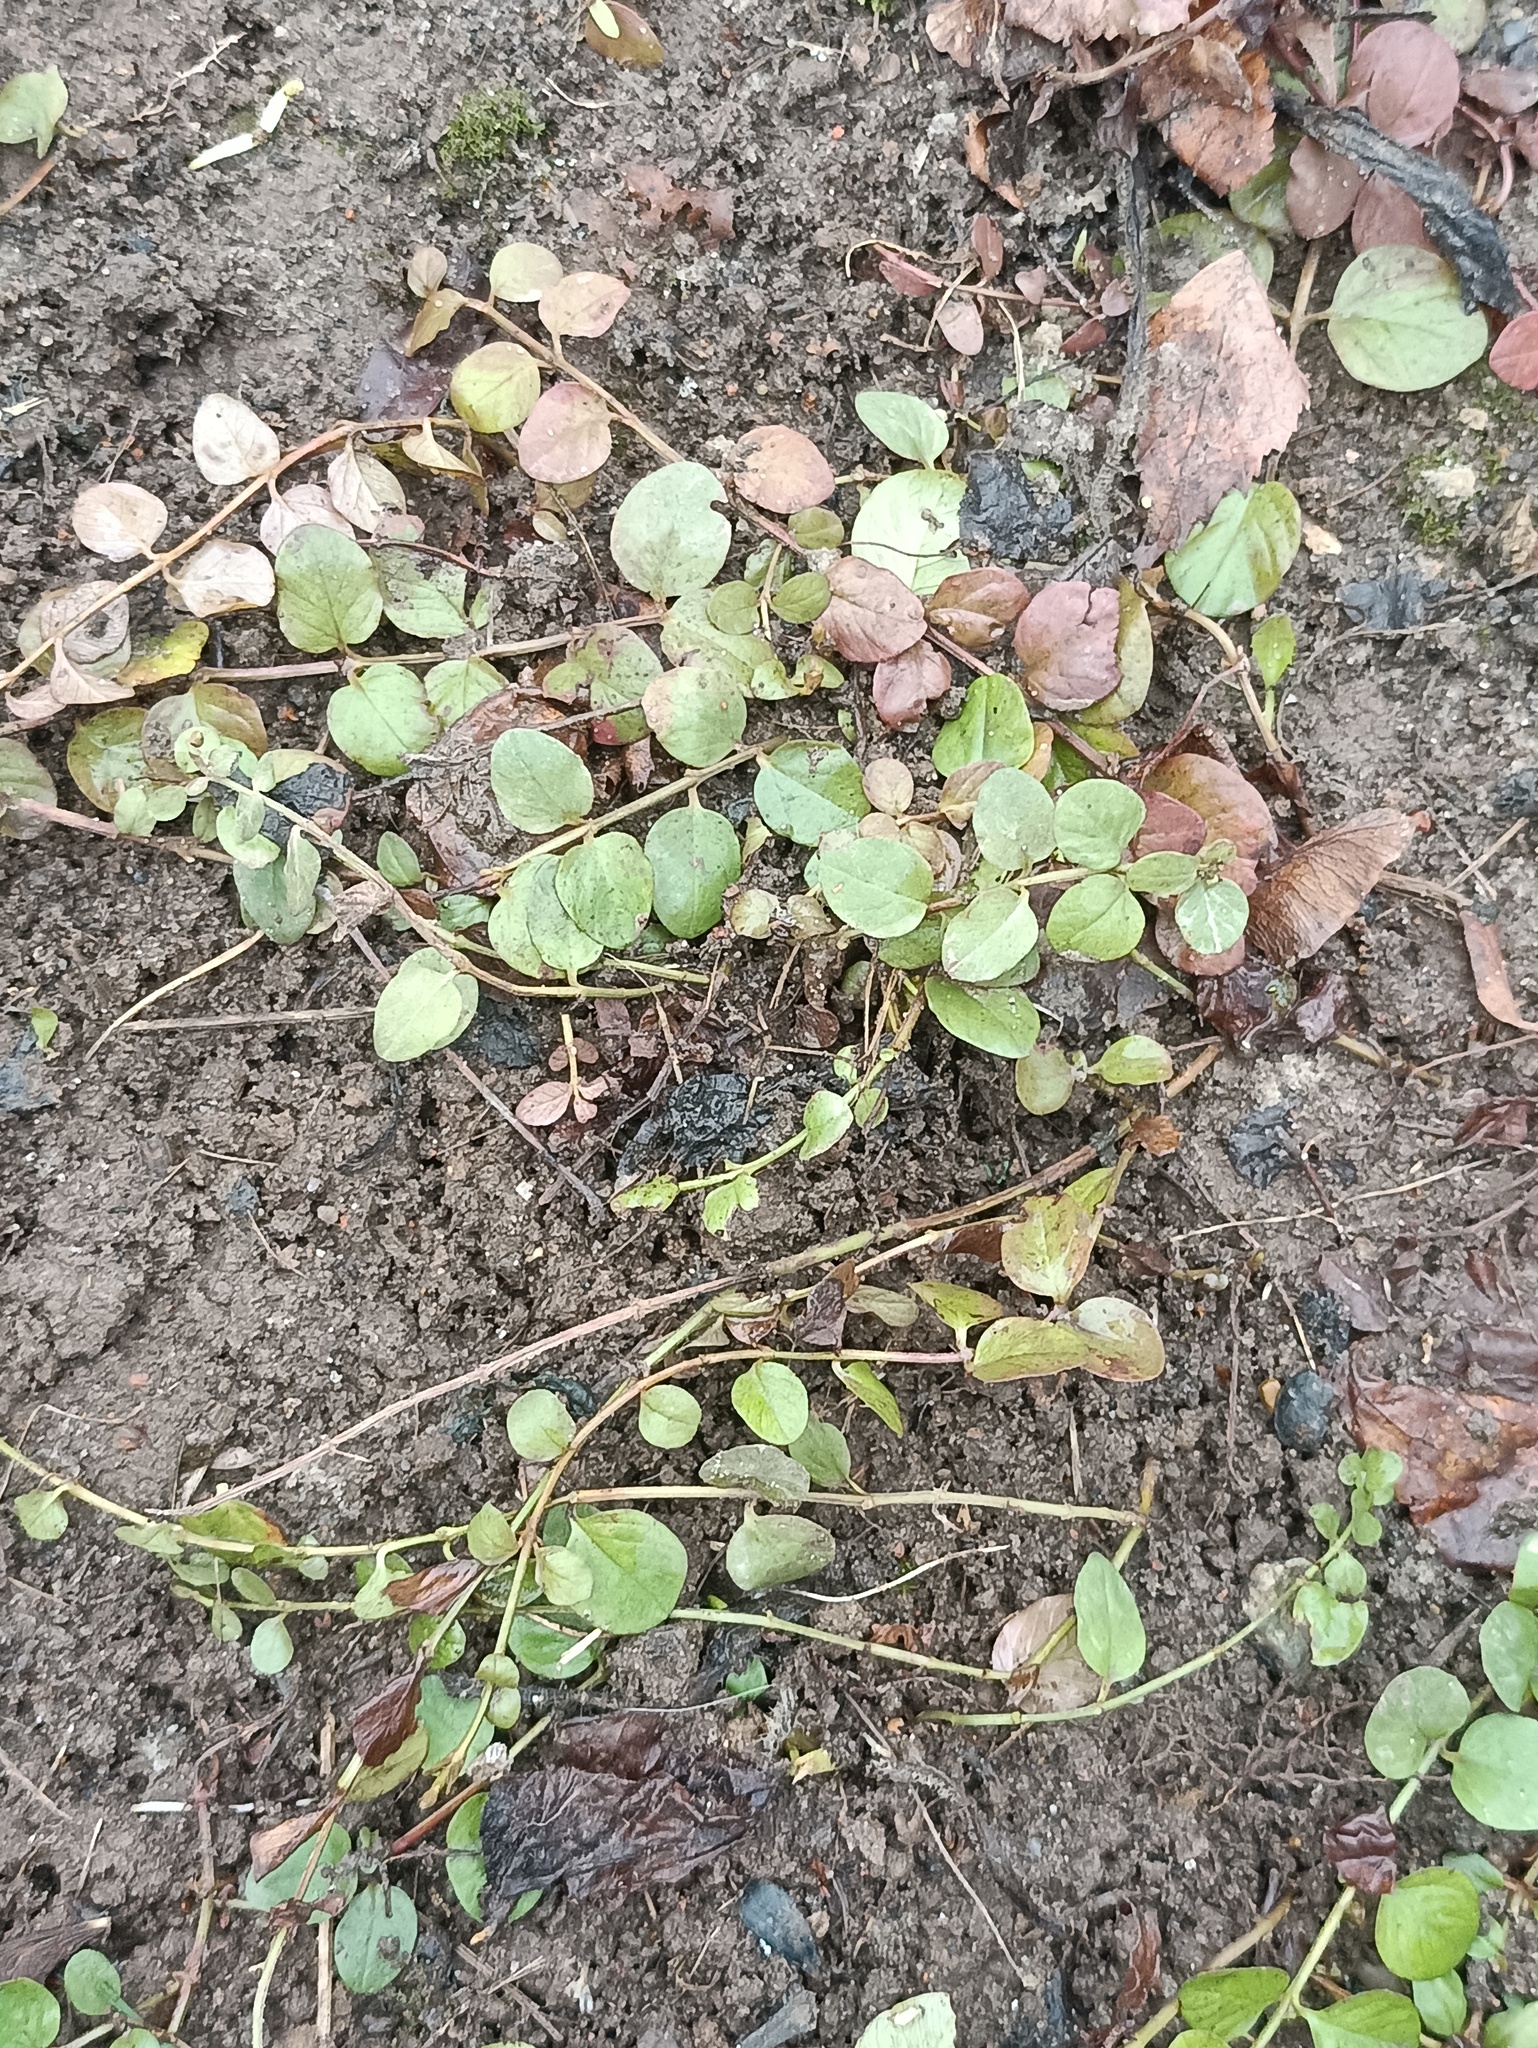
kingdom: Plantae
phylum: Tracheophyta
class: Magnoliopsida
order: Ericales
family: Primulaceae
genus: Lysimachia
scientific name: Lysimachia nummularia
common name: Moneywort
